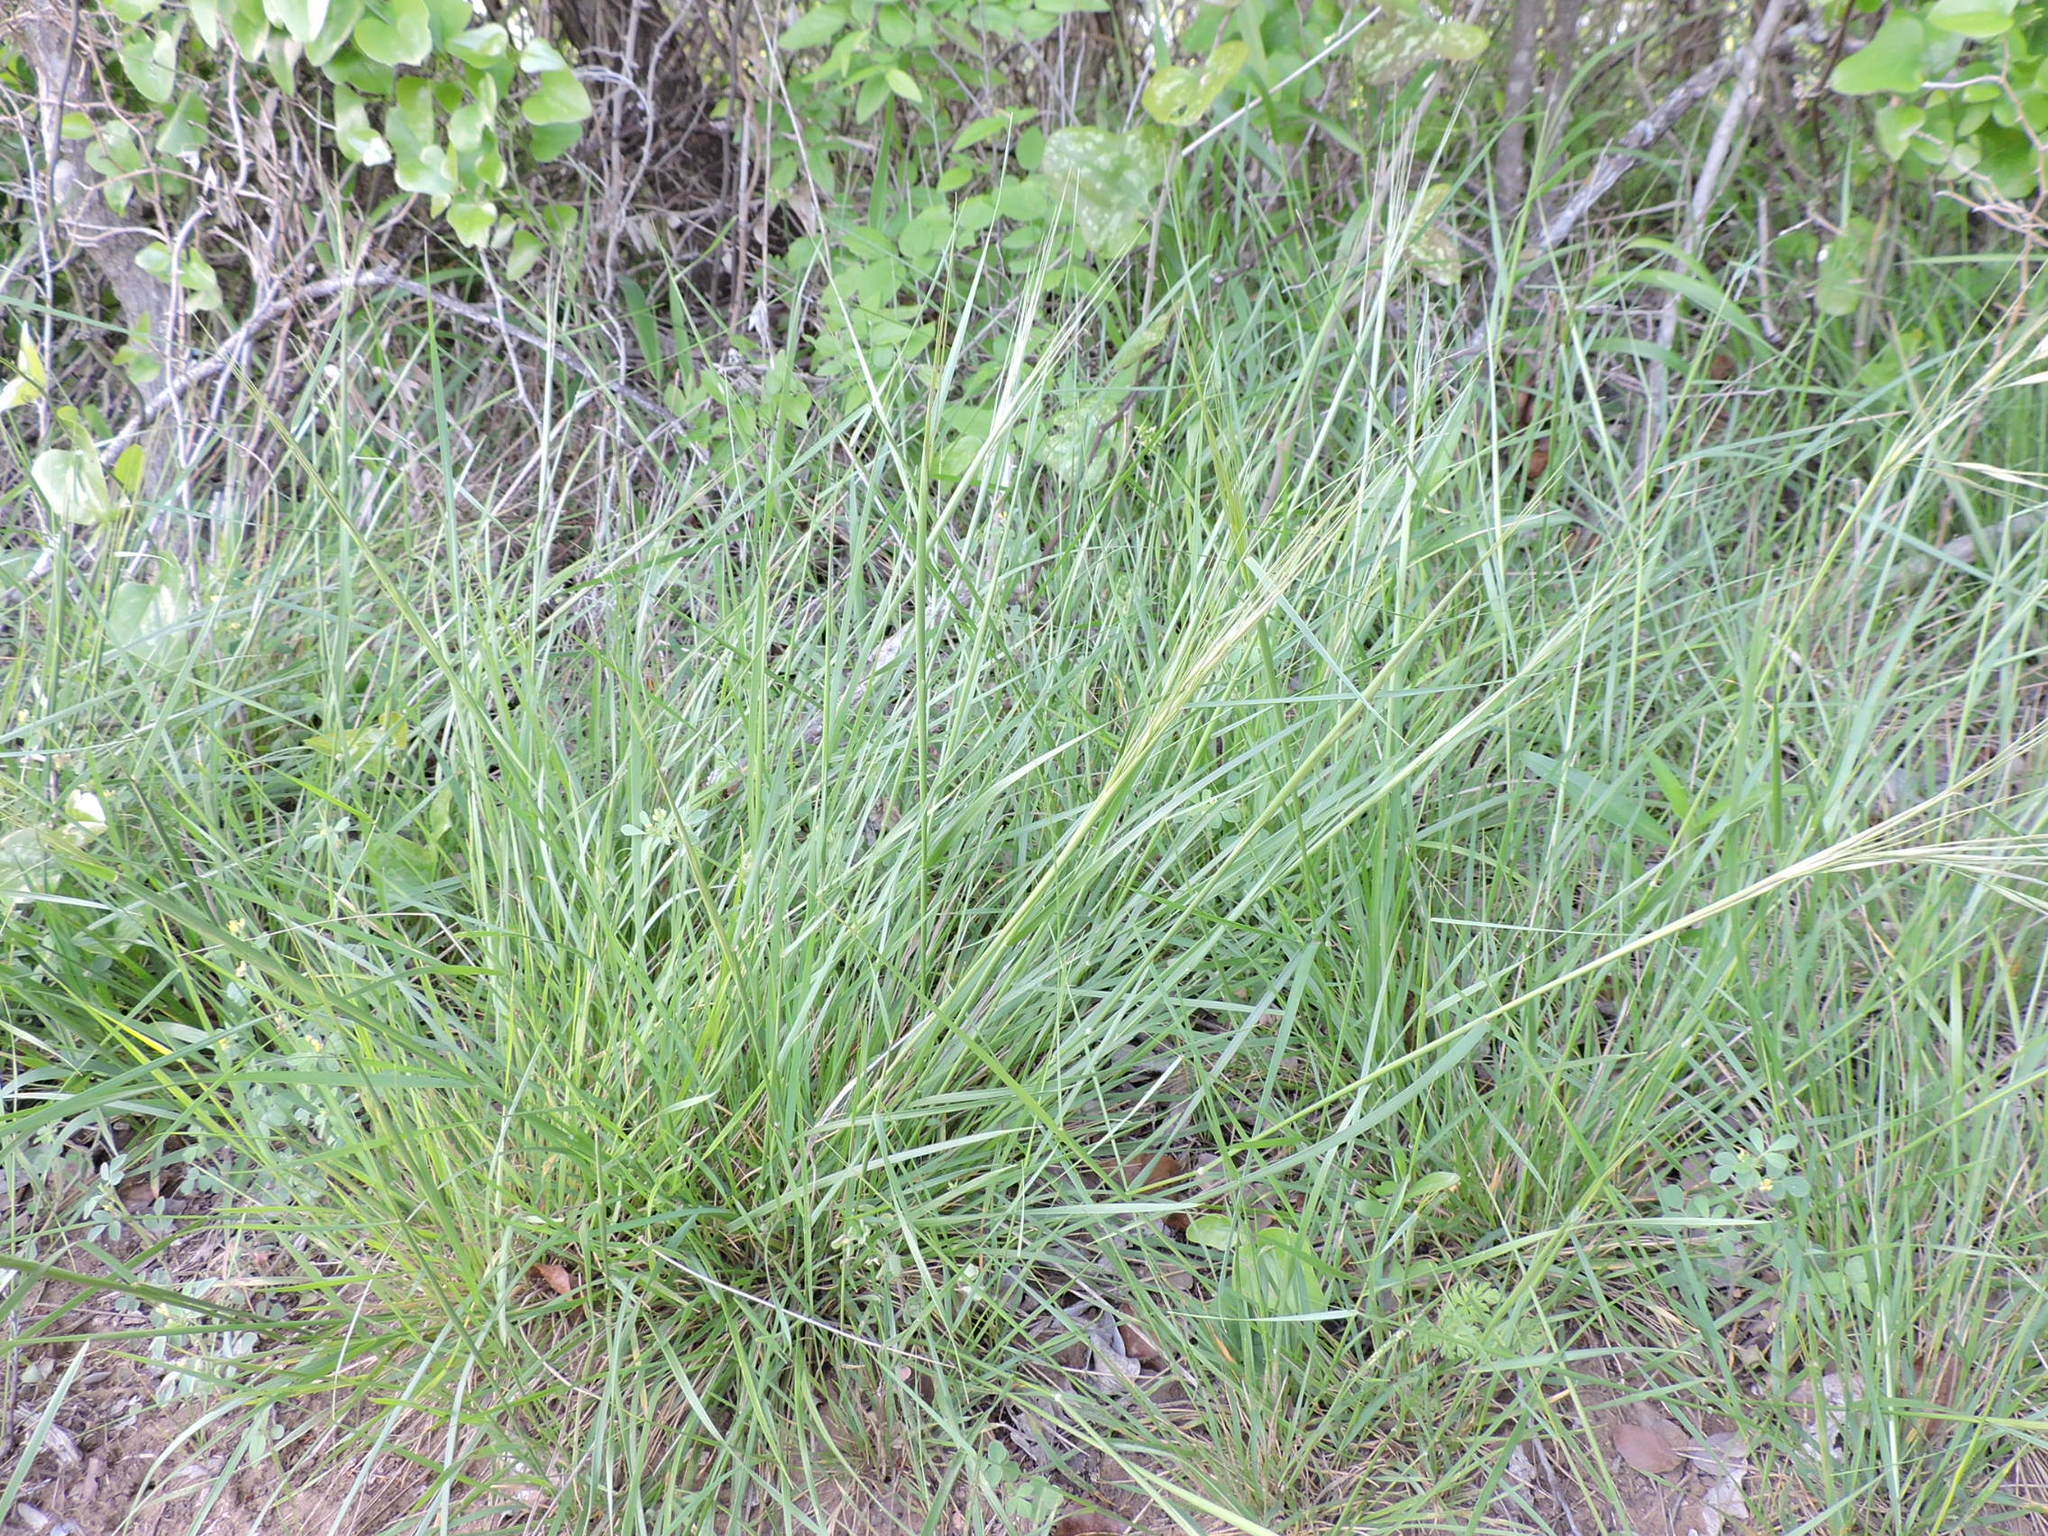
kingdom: Plantae
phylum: Tracheophyta
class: Liliopsida
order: Poales
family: Poaceae
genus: Nassella
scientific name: Nassella leucotricha
